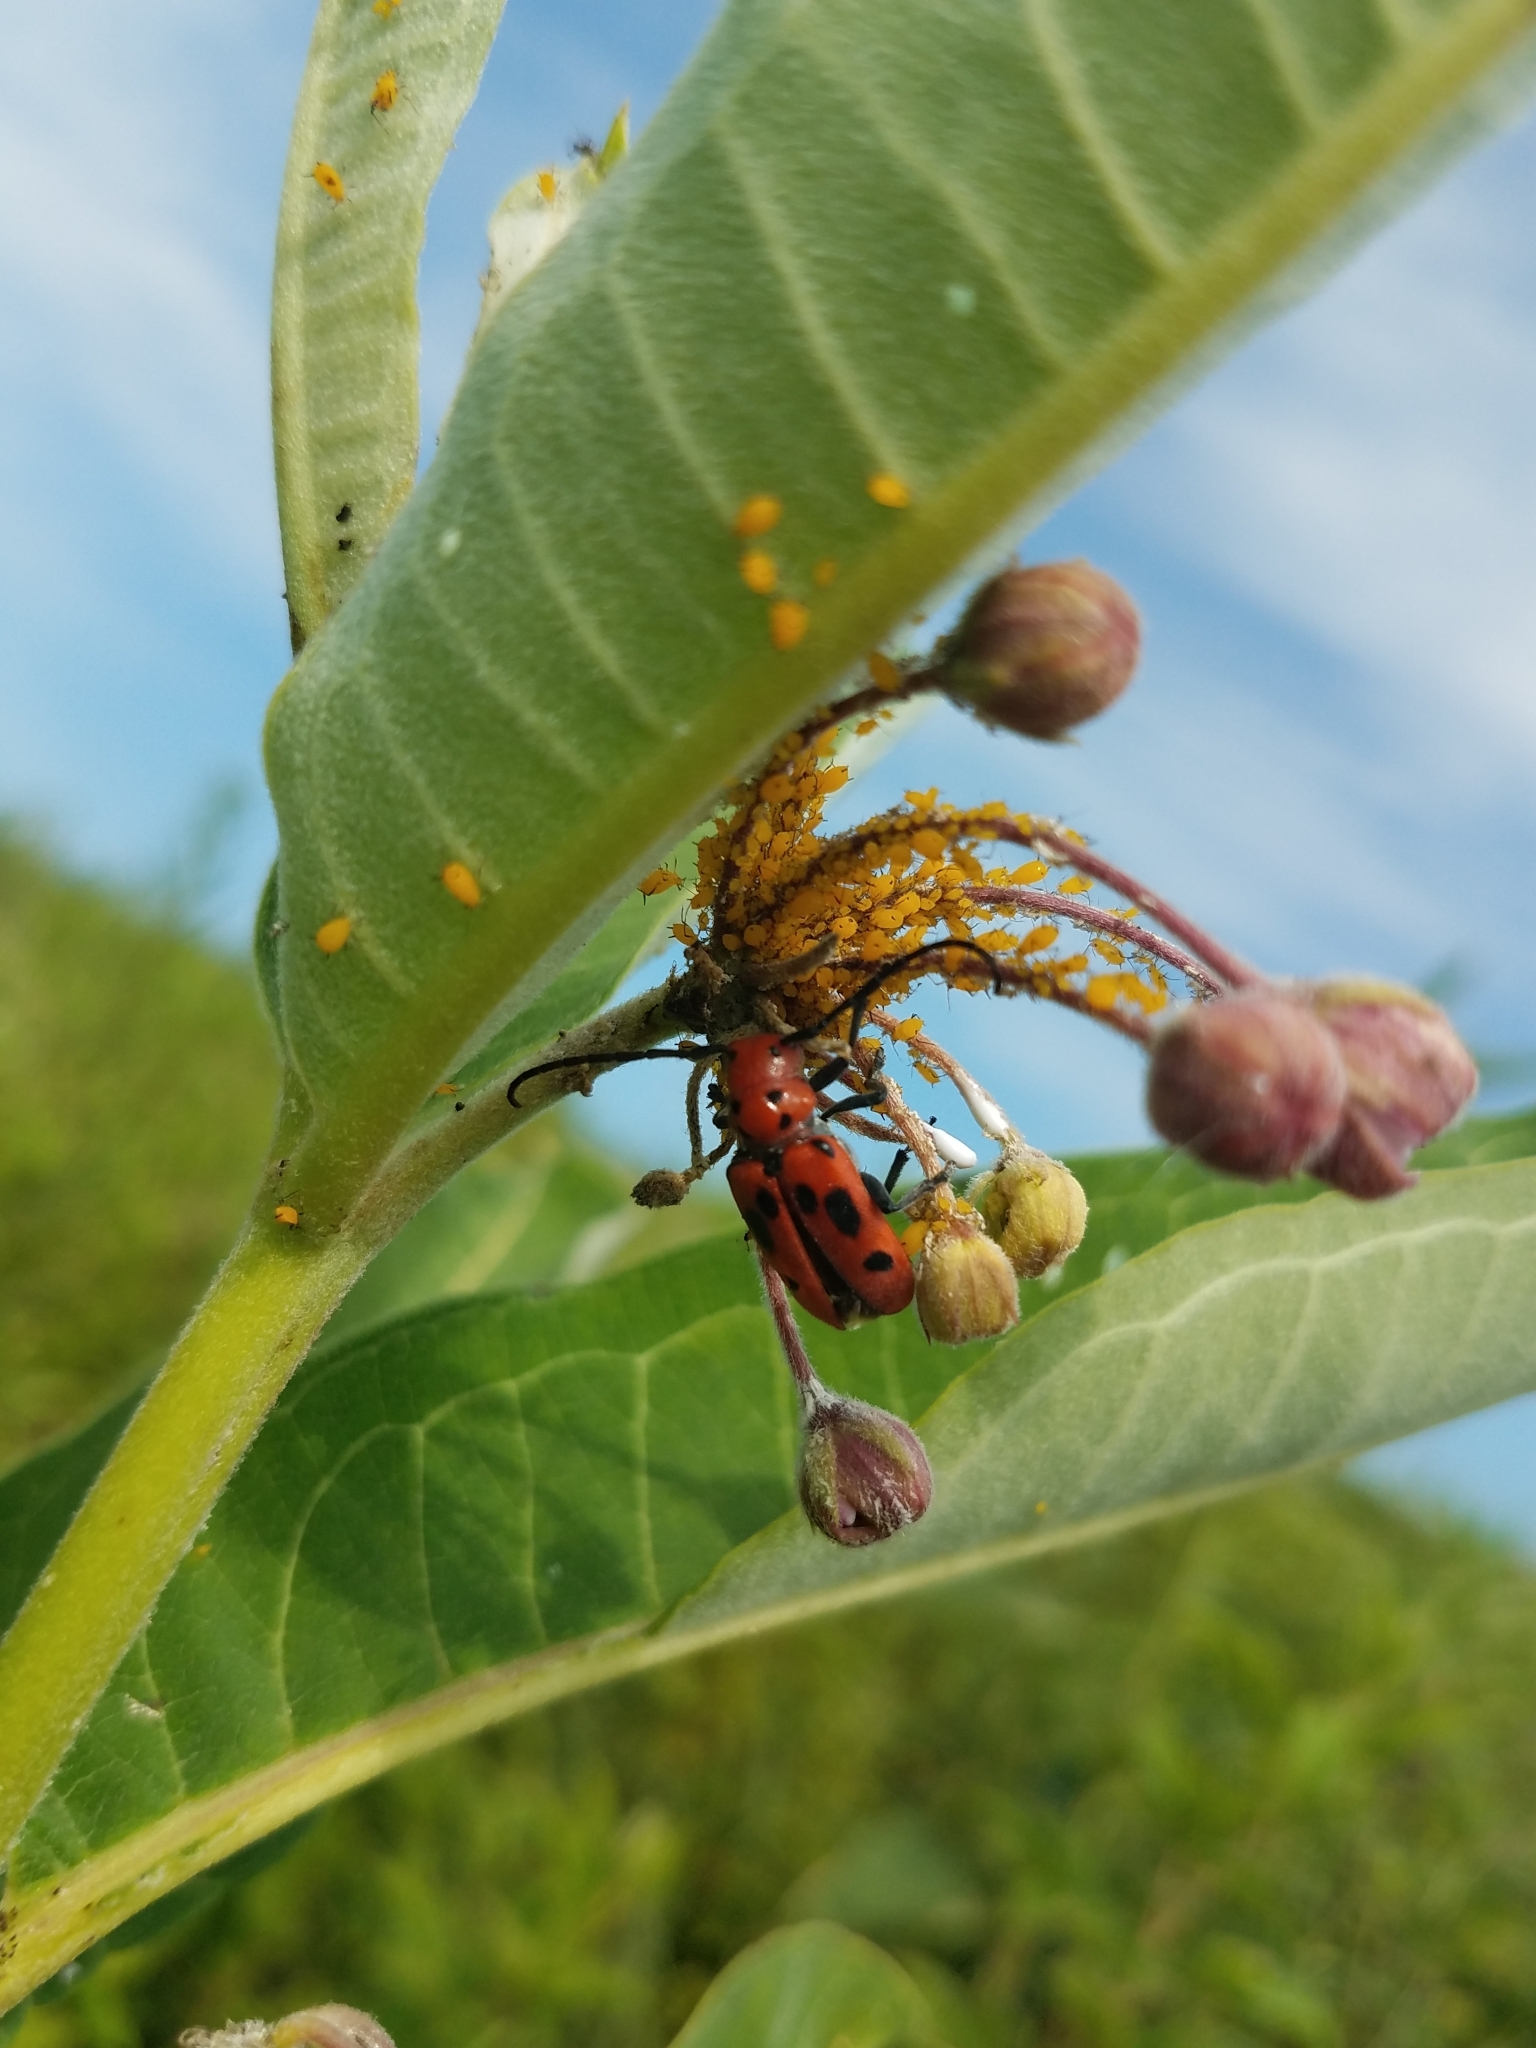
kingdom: Animalia
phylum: Arthropoda
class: Insecta
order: Coleoptera
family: Cerambycidae
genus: Tetraopes
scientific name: Tetraopes tetrophthalmus
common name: Red milkweed beetle
